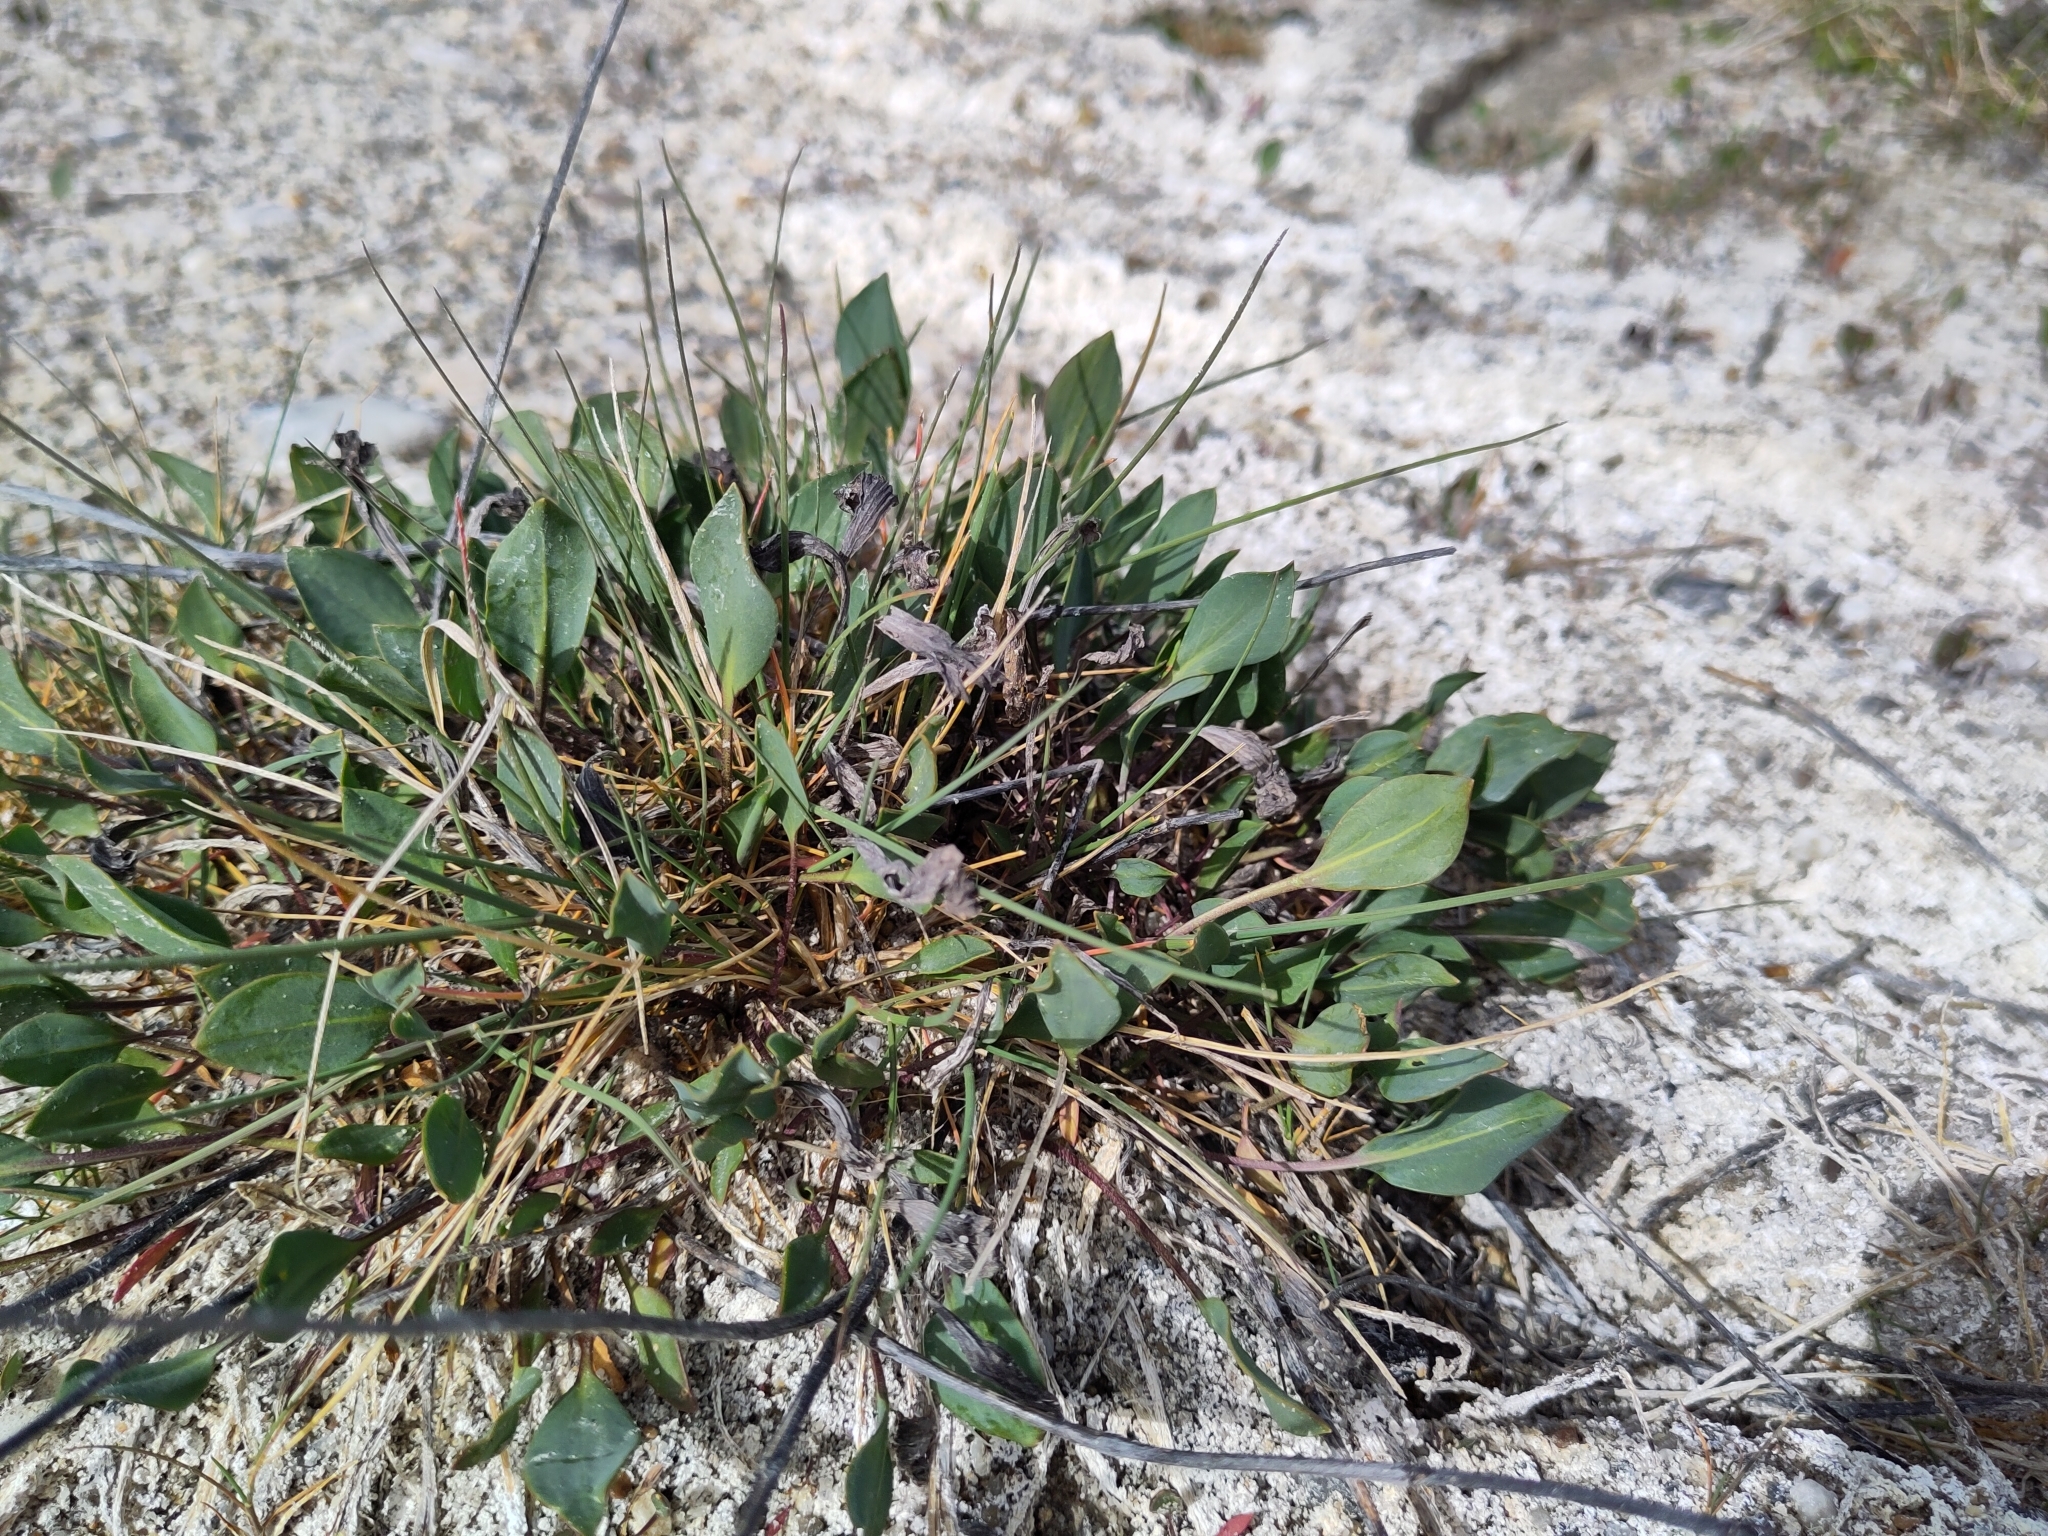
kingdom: Plantae
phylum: Tracheophyta
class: Magnoliopsida
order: Brassicales
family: Brassicaceae
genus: Lepidium
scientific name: Lepidium cartilagineum
